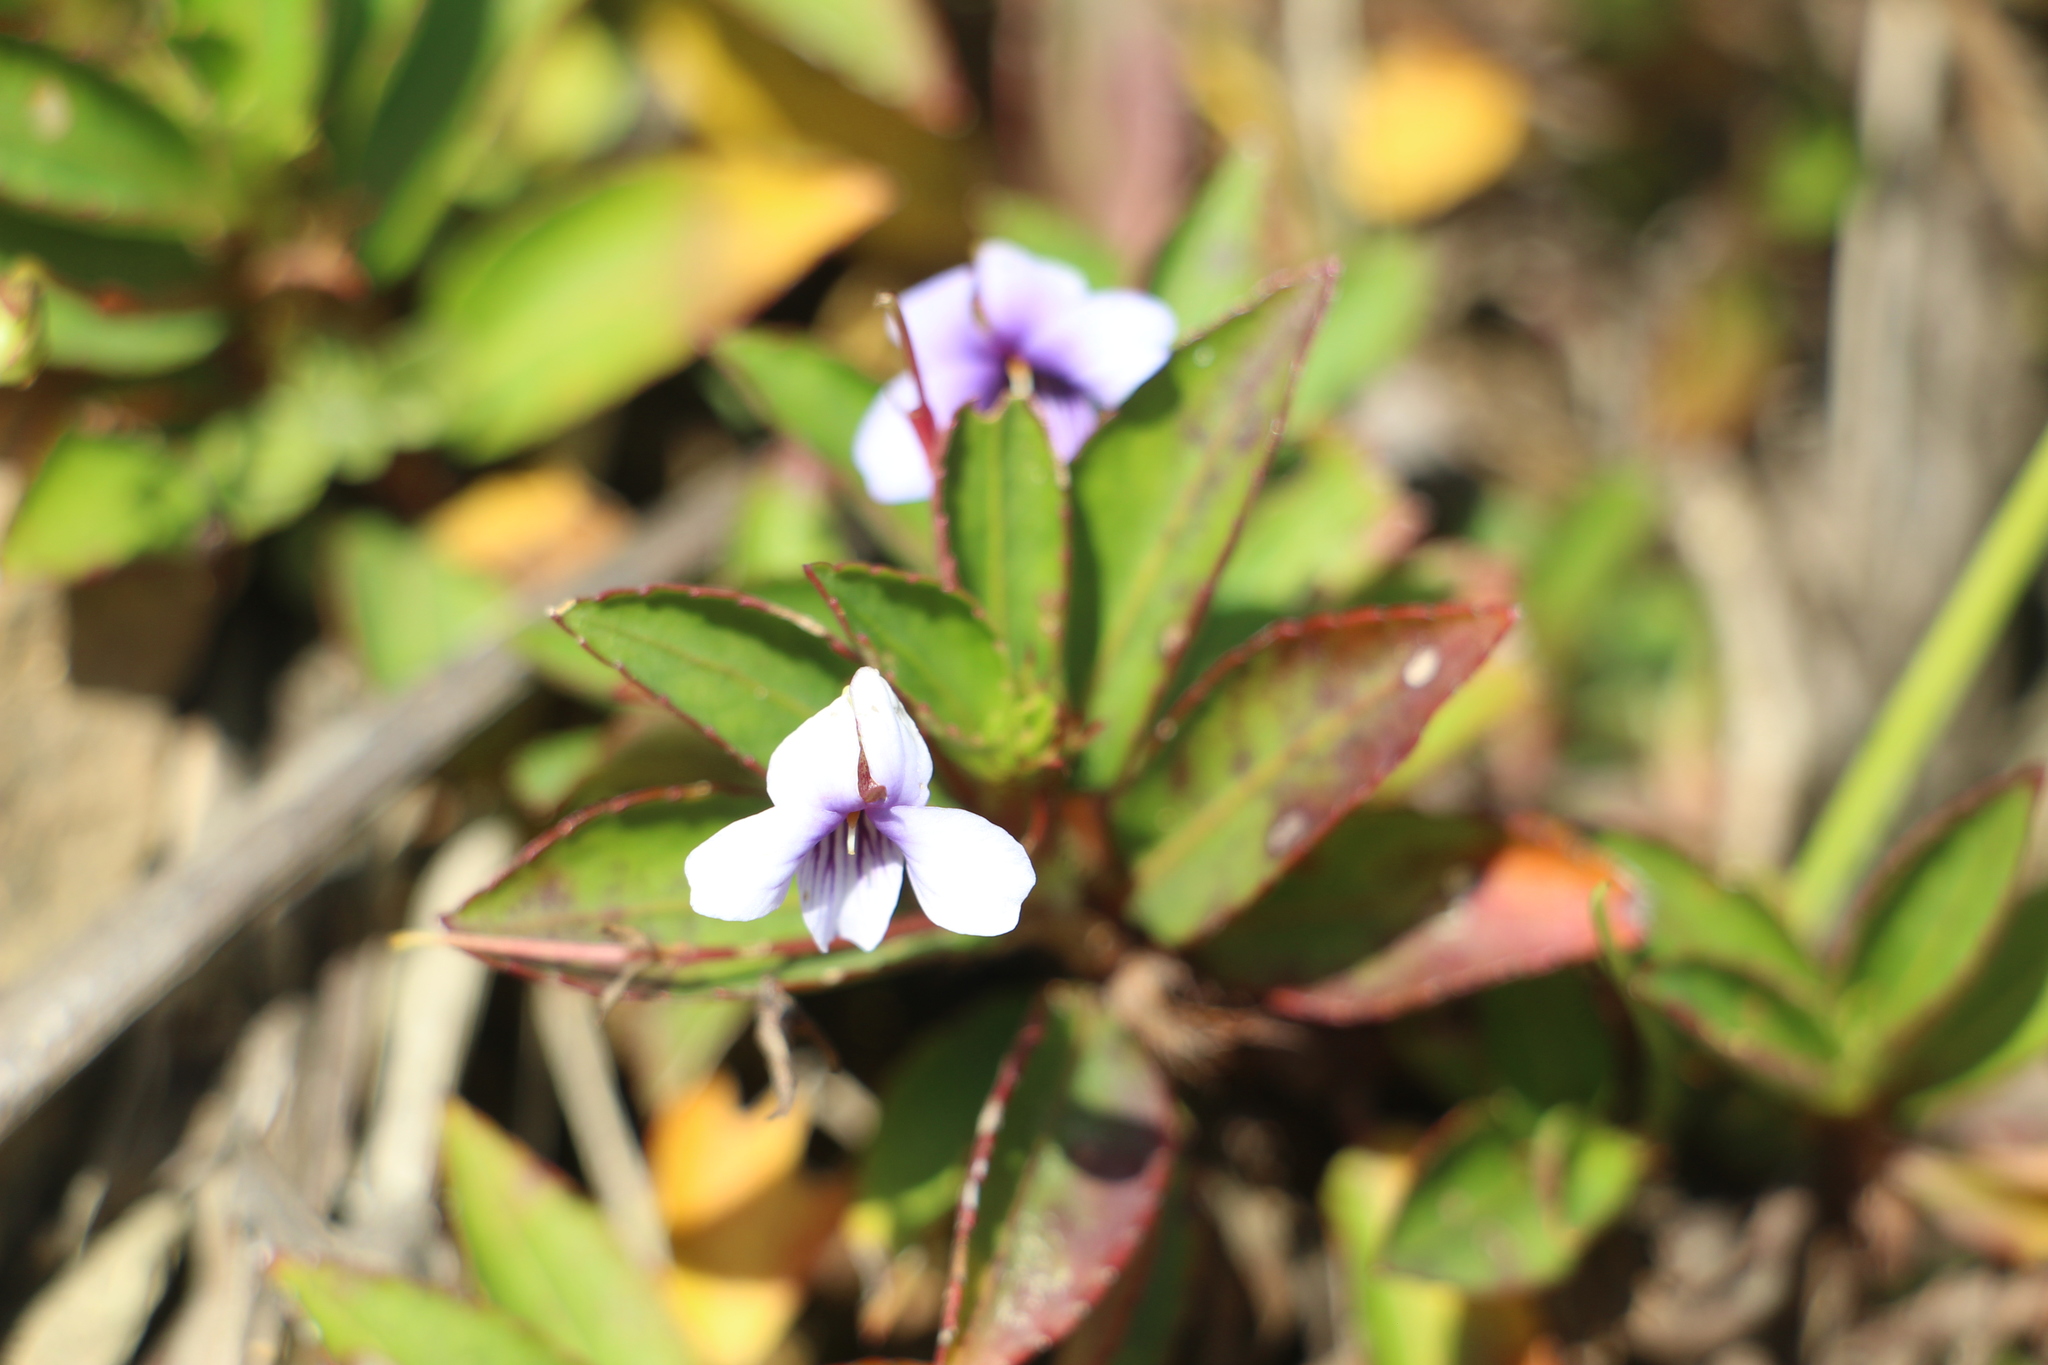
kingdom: Plantae
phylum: Tracheophyta
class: Magnoliopsida
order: Malpighiales
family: Violaceae
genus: Viola
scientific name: Viola stipularis
